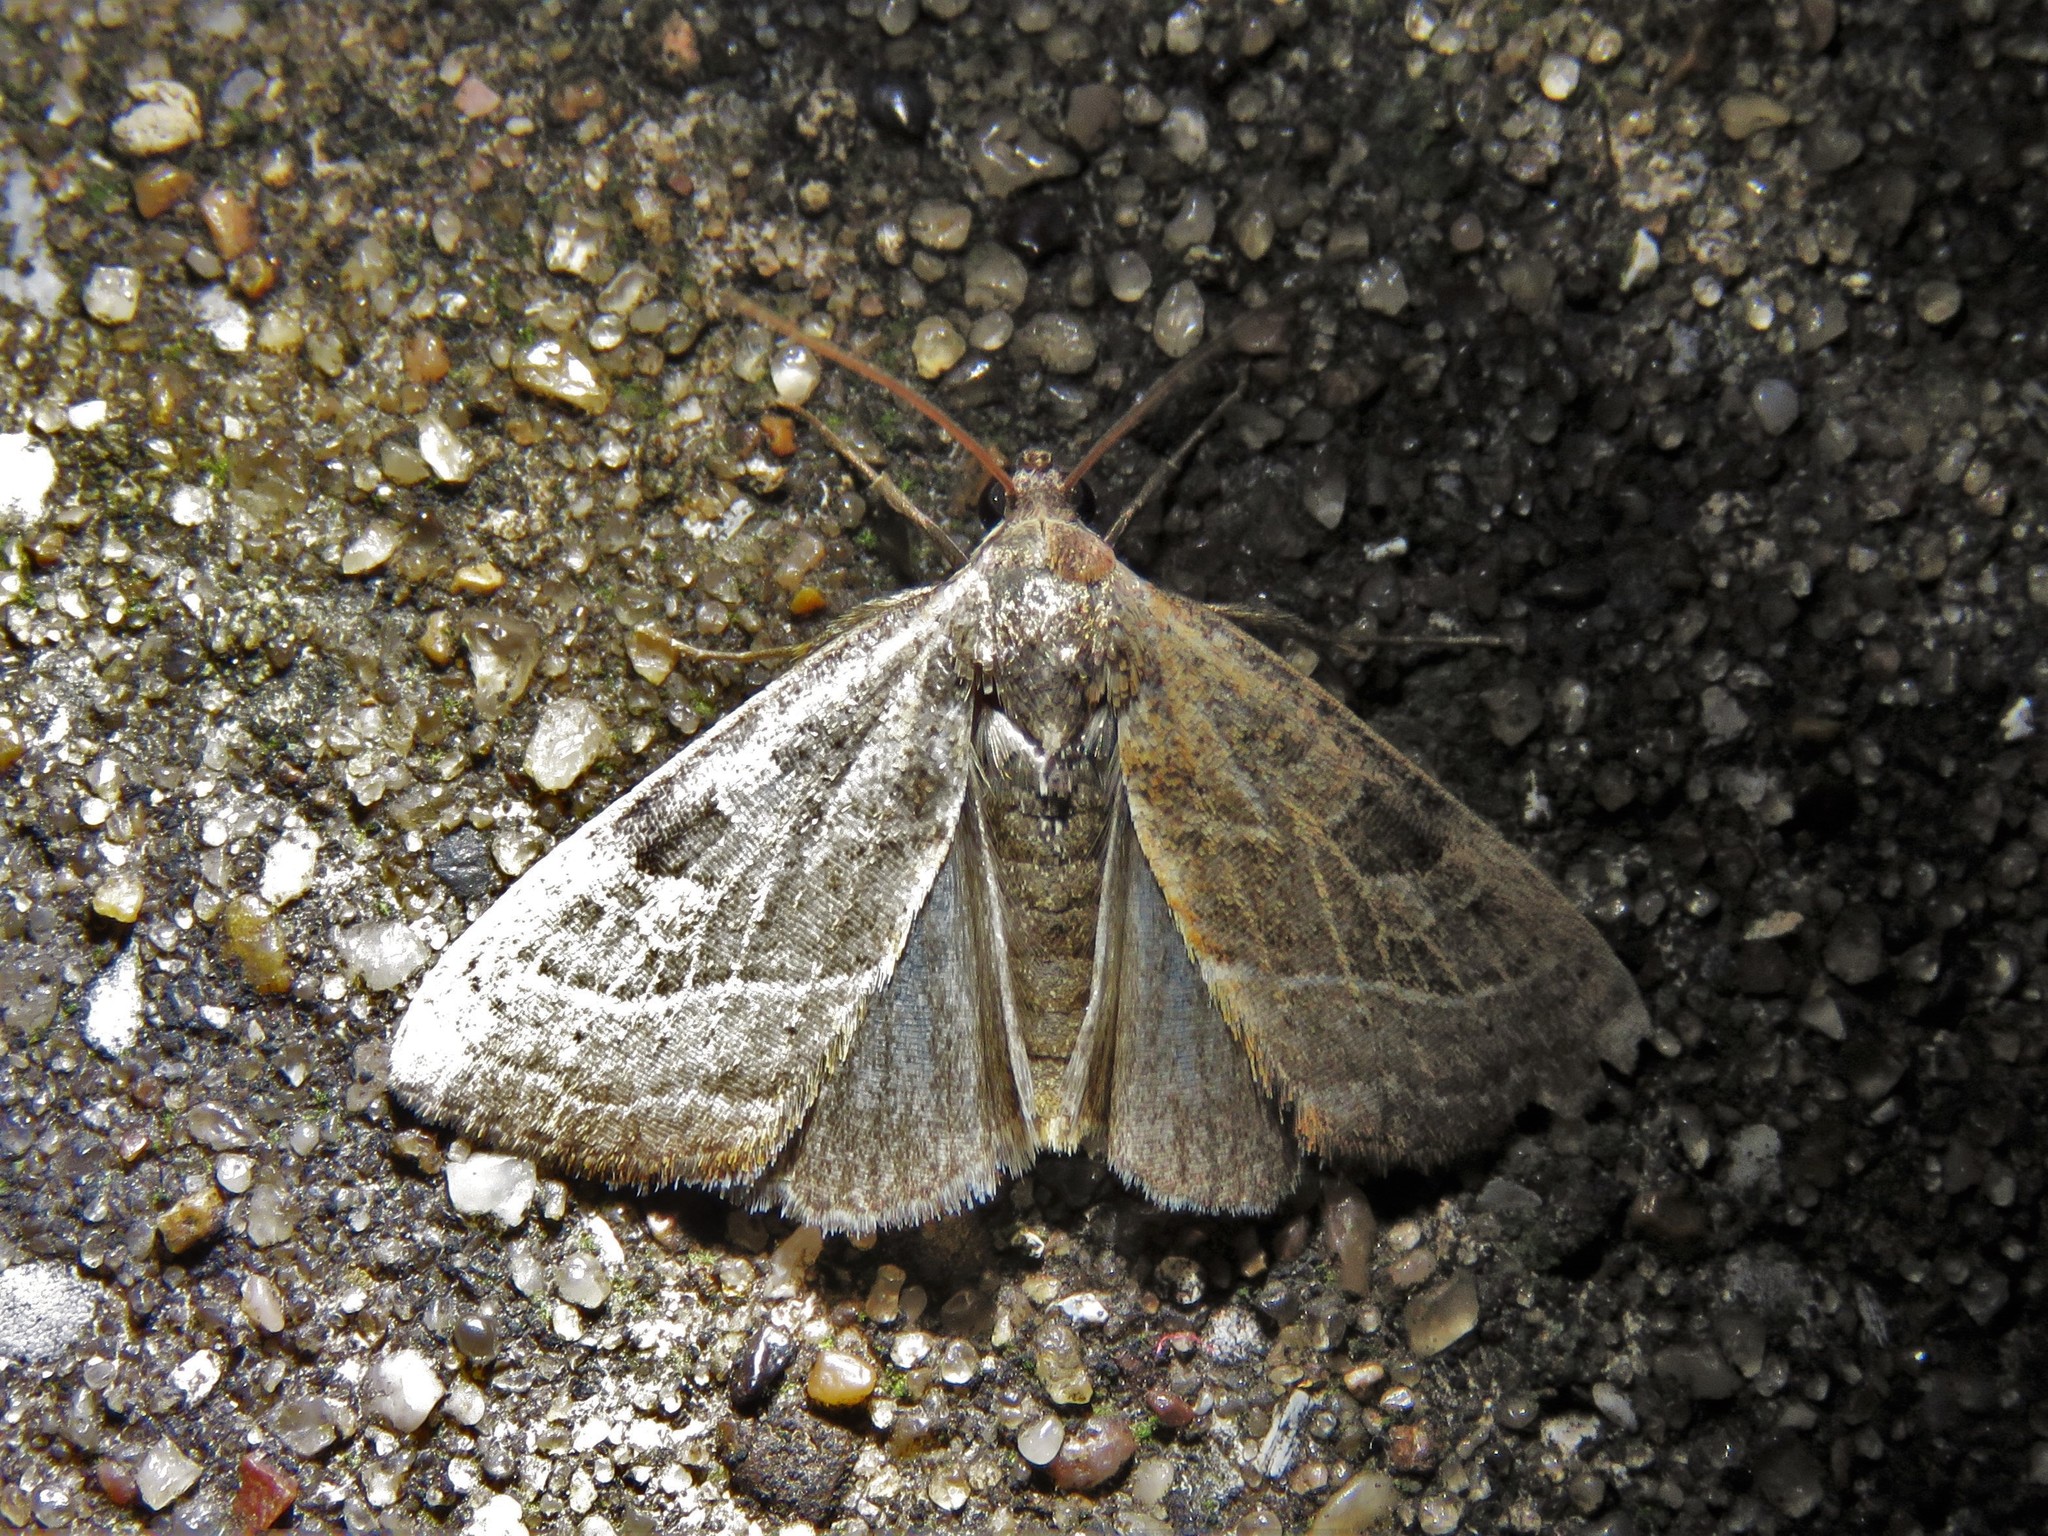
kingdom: Animalia
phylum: Arthropoda
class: Insecta
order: Lepidoptera
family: Noctuidae
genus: Galgula
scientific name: Galgula partita
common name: Wedgeling
